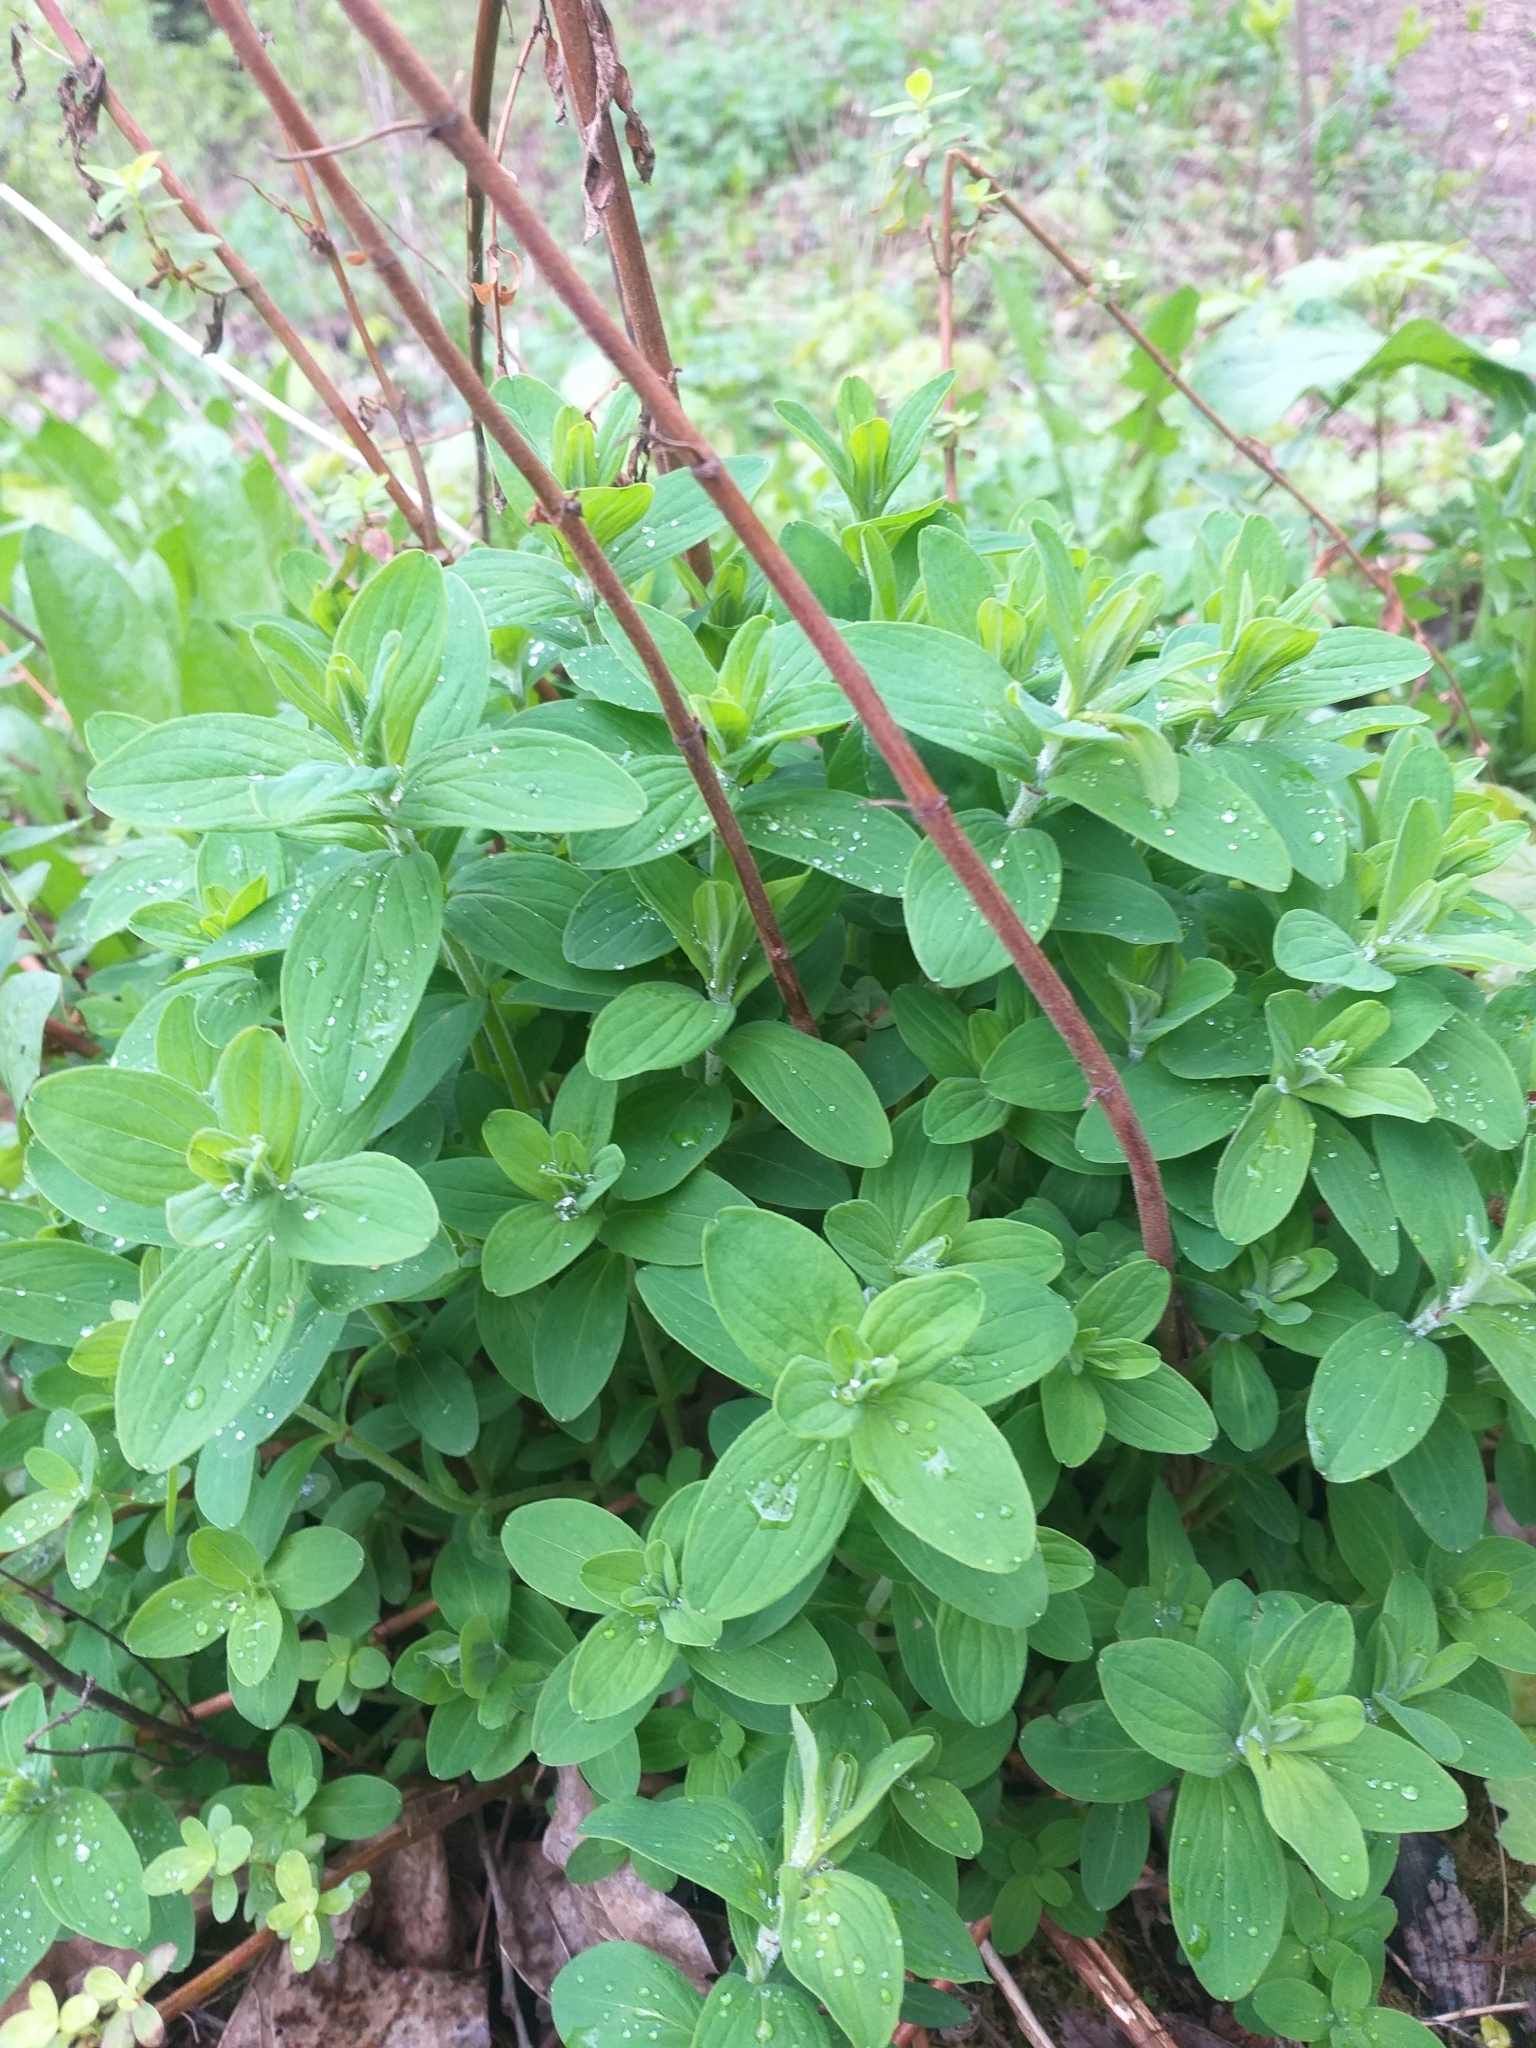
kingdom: Plantae
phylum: Tracheophyta
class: Magnoliopsida
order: Malpighiales
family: Hypericaceae
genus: Hypericum
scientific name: Hypericum hirsutum
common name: Hairy st. john's-wort
